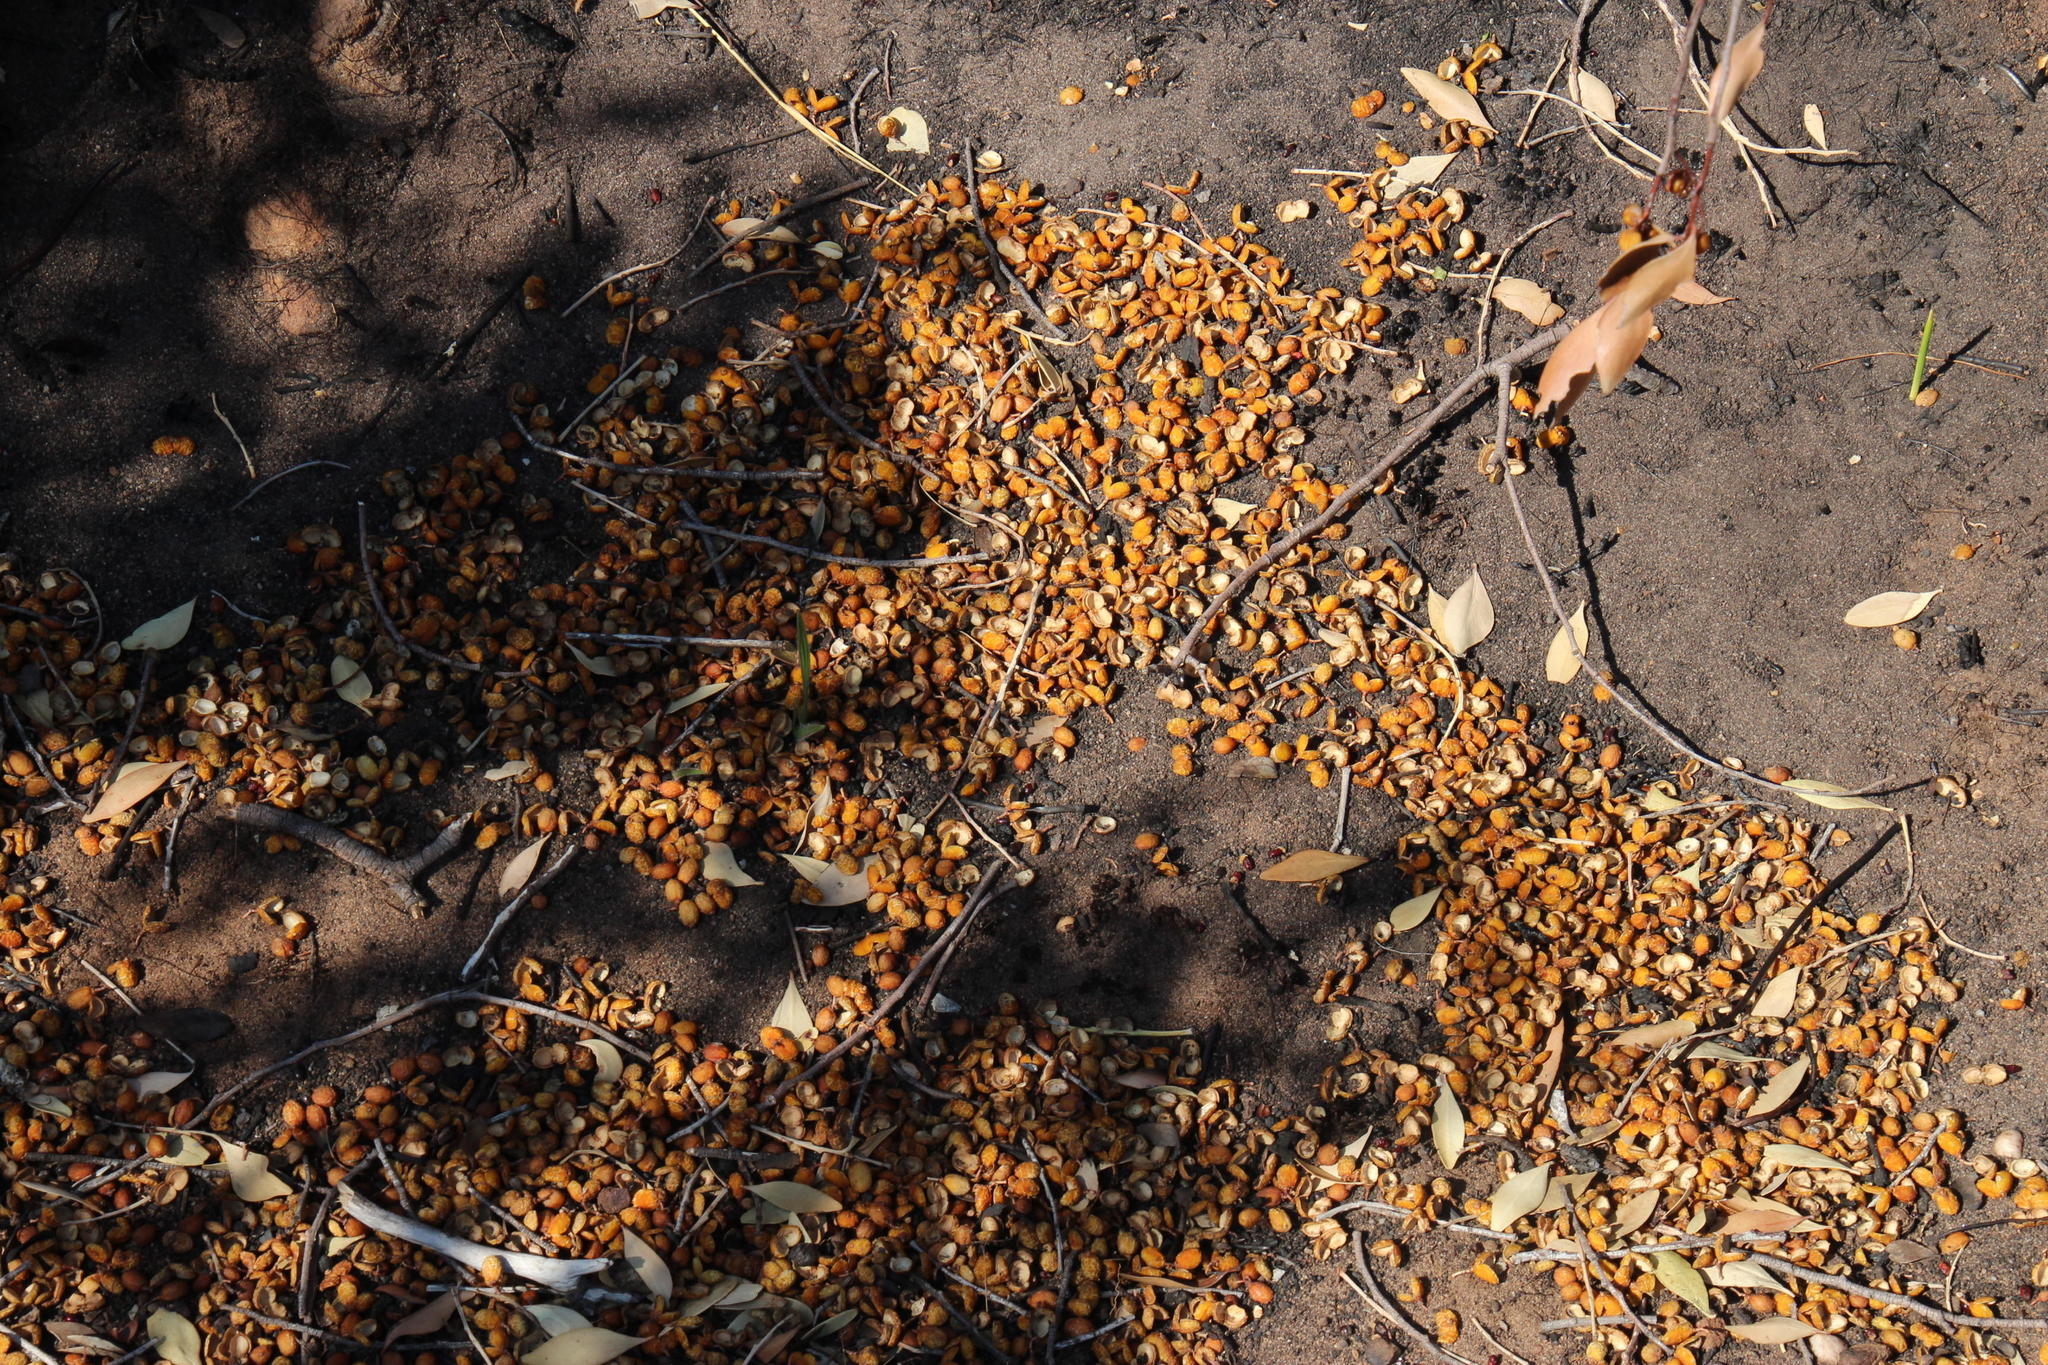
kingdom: Plantae
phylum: Tracheophyta
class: Magnoliopsida
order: Celastrales
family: Celastraceae
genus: Gymnosporia
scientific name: Gymnosporia laurina
